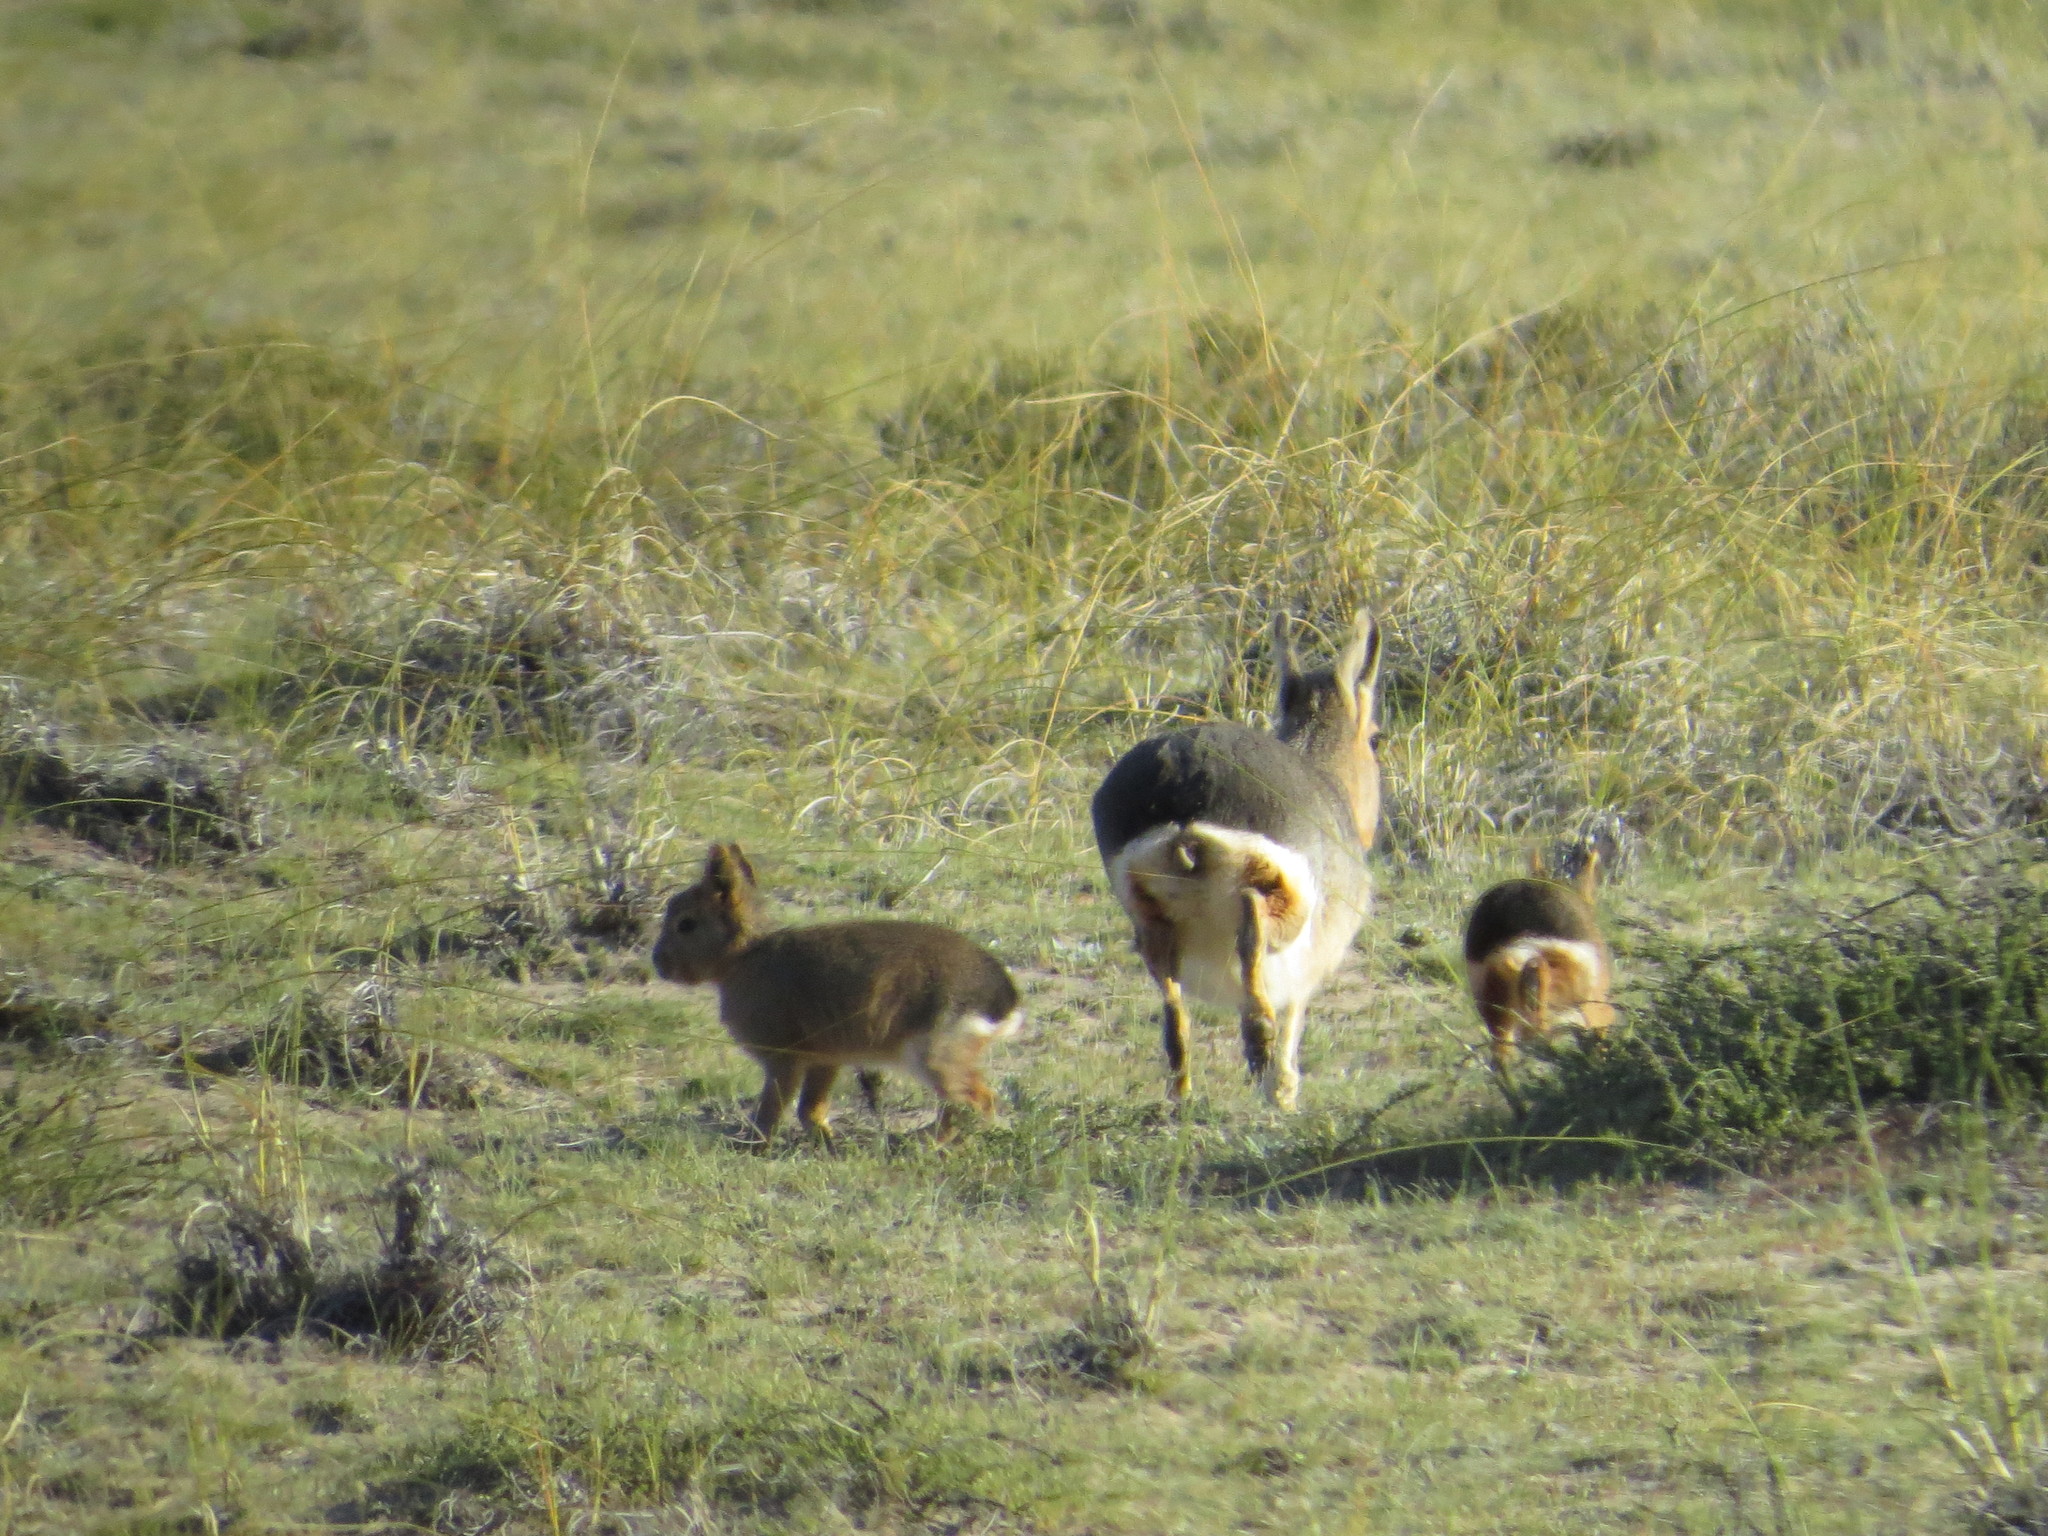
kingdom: Animalia
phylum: Chordata
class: Mammalia
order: Rodentia
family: Caviidae
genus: Dolichotis
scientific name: Dolichotis patagonum
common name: Patagonian mara
